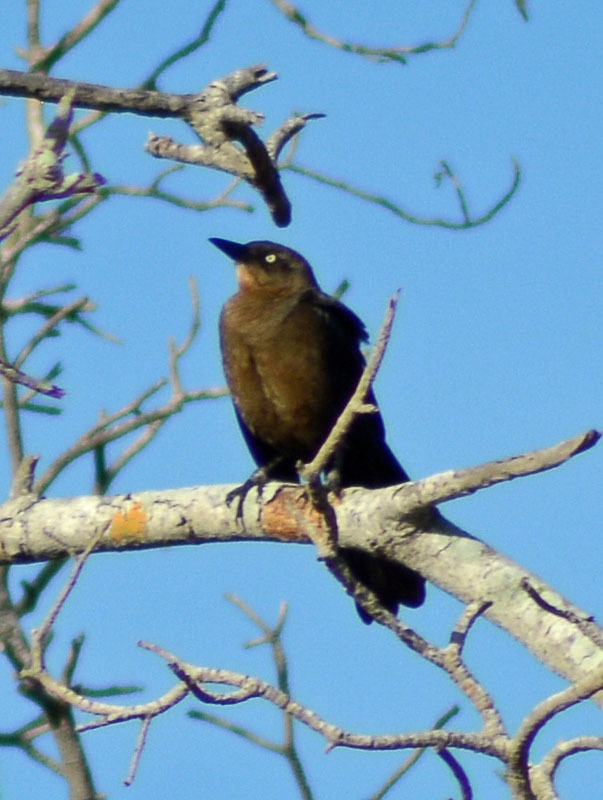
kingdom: Animalia
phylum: Chordata
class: Aves
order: Passeriformes
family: Icteridae
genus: Quiscalus
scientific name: Quiscalus mexicanus
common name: Great-tailed grackle
